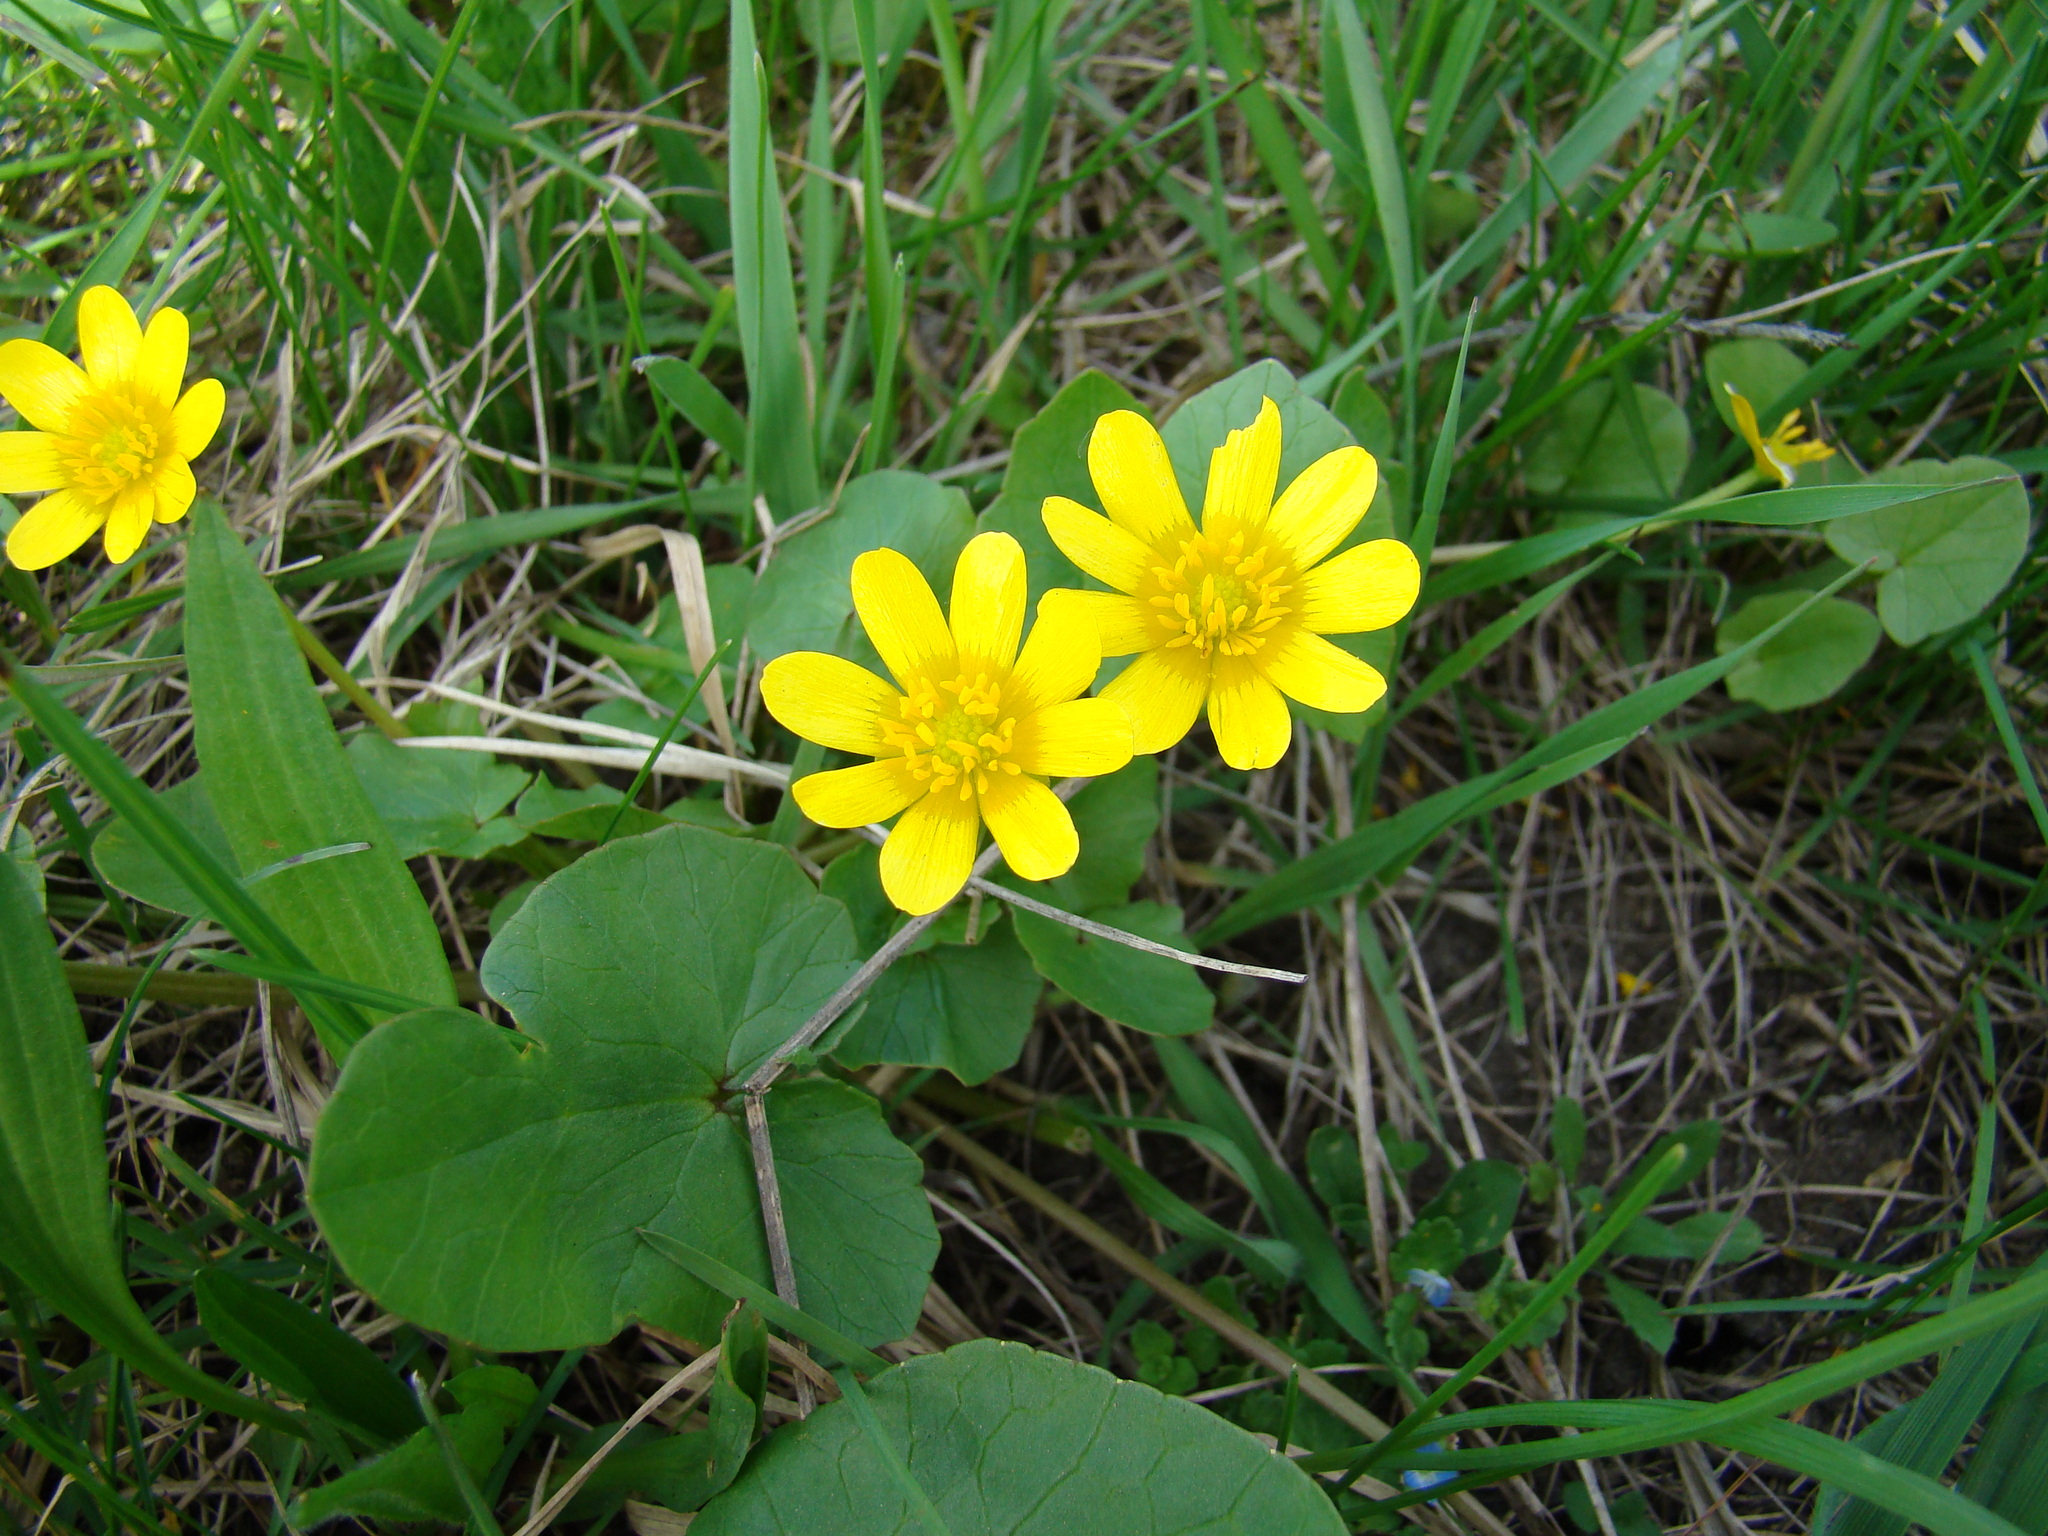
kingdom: Plantae
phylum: Tracheophyta
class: Magnoliopsida
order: Ranunculales
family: Ranunculaceae
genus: Ficaria
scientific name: Ficaria verna
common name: Lesser celandine
